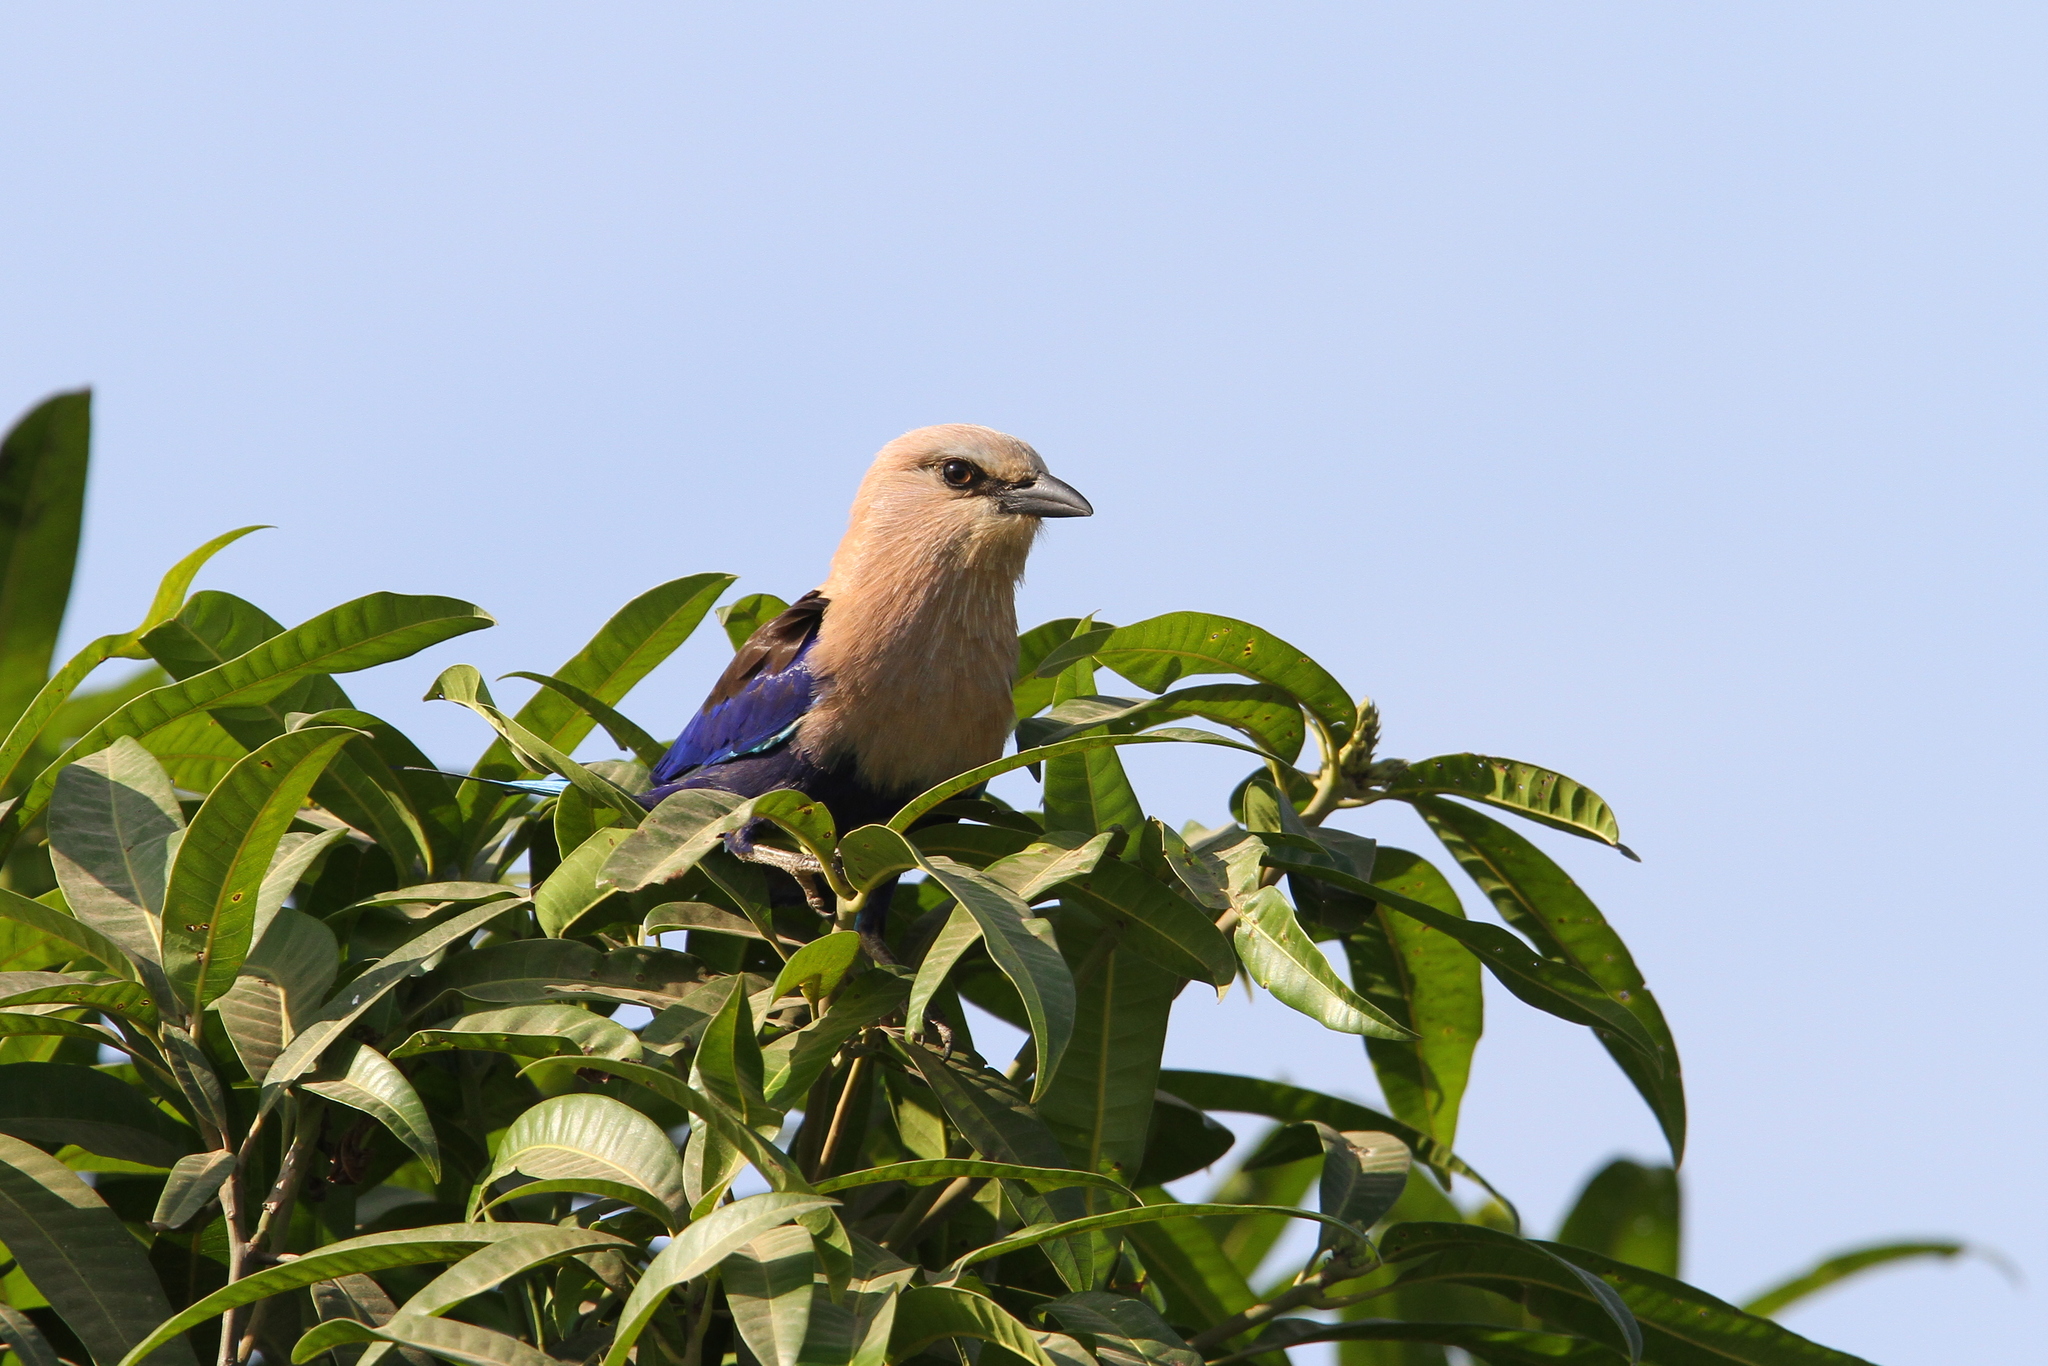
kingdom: Animalia
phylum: Chordata
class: Aves
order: Coraciiformes
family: Coraciidae
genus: Coracias
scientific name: Coracias cyanogaster
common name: Blue-bellied roller
